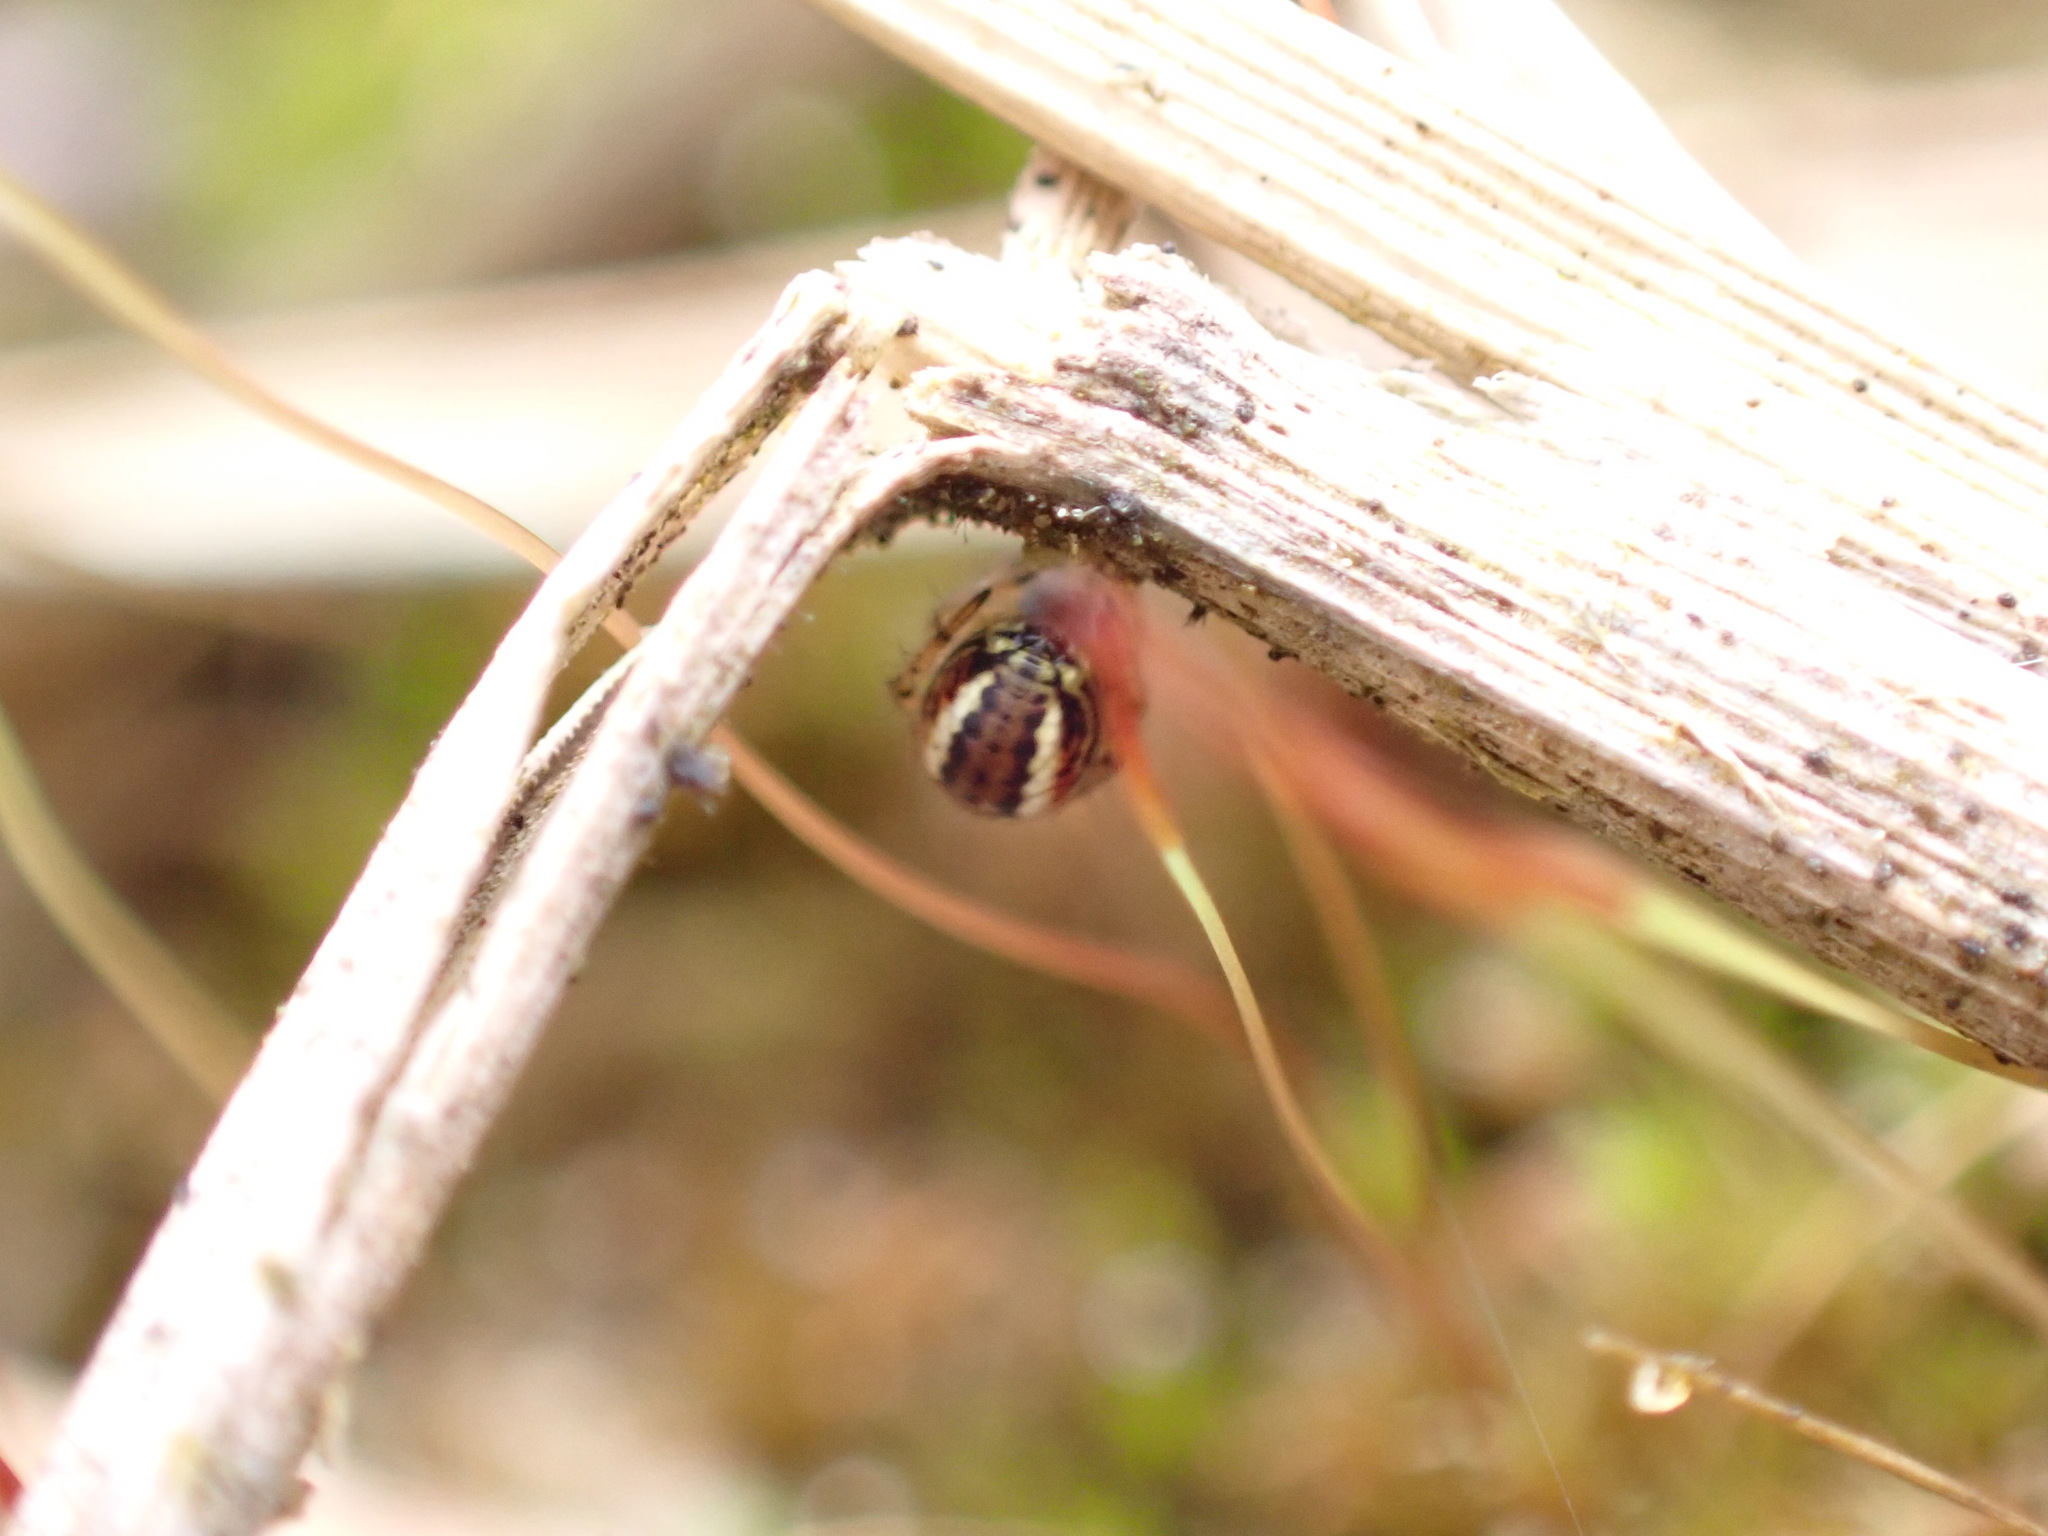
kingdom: Animalia
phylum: Arthropoda
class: Arachnida
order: Araneae
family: Araneidae
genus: Mangora
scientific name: Mangora acalypha
